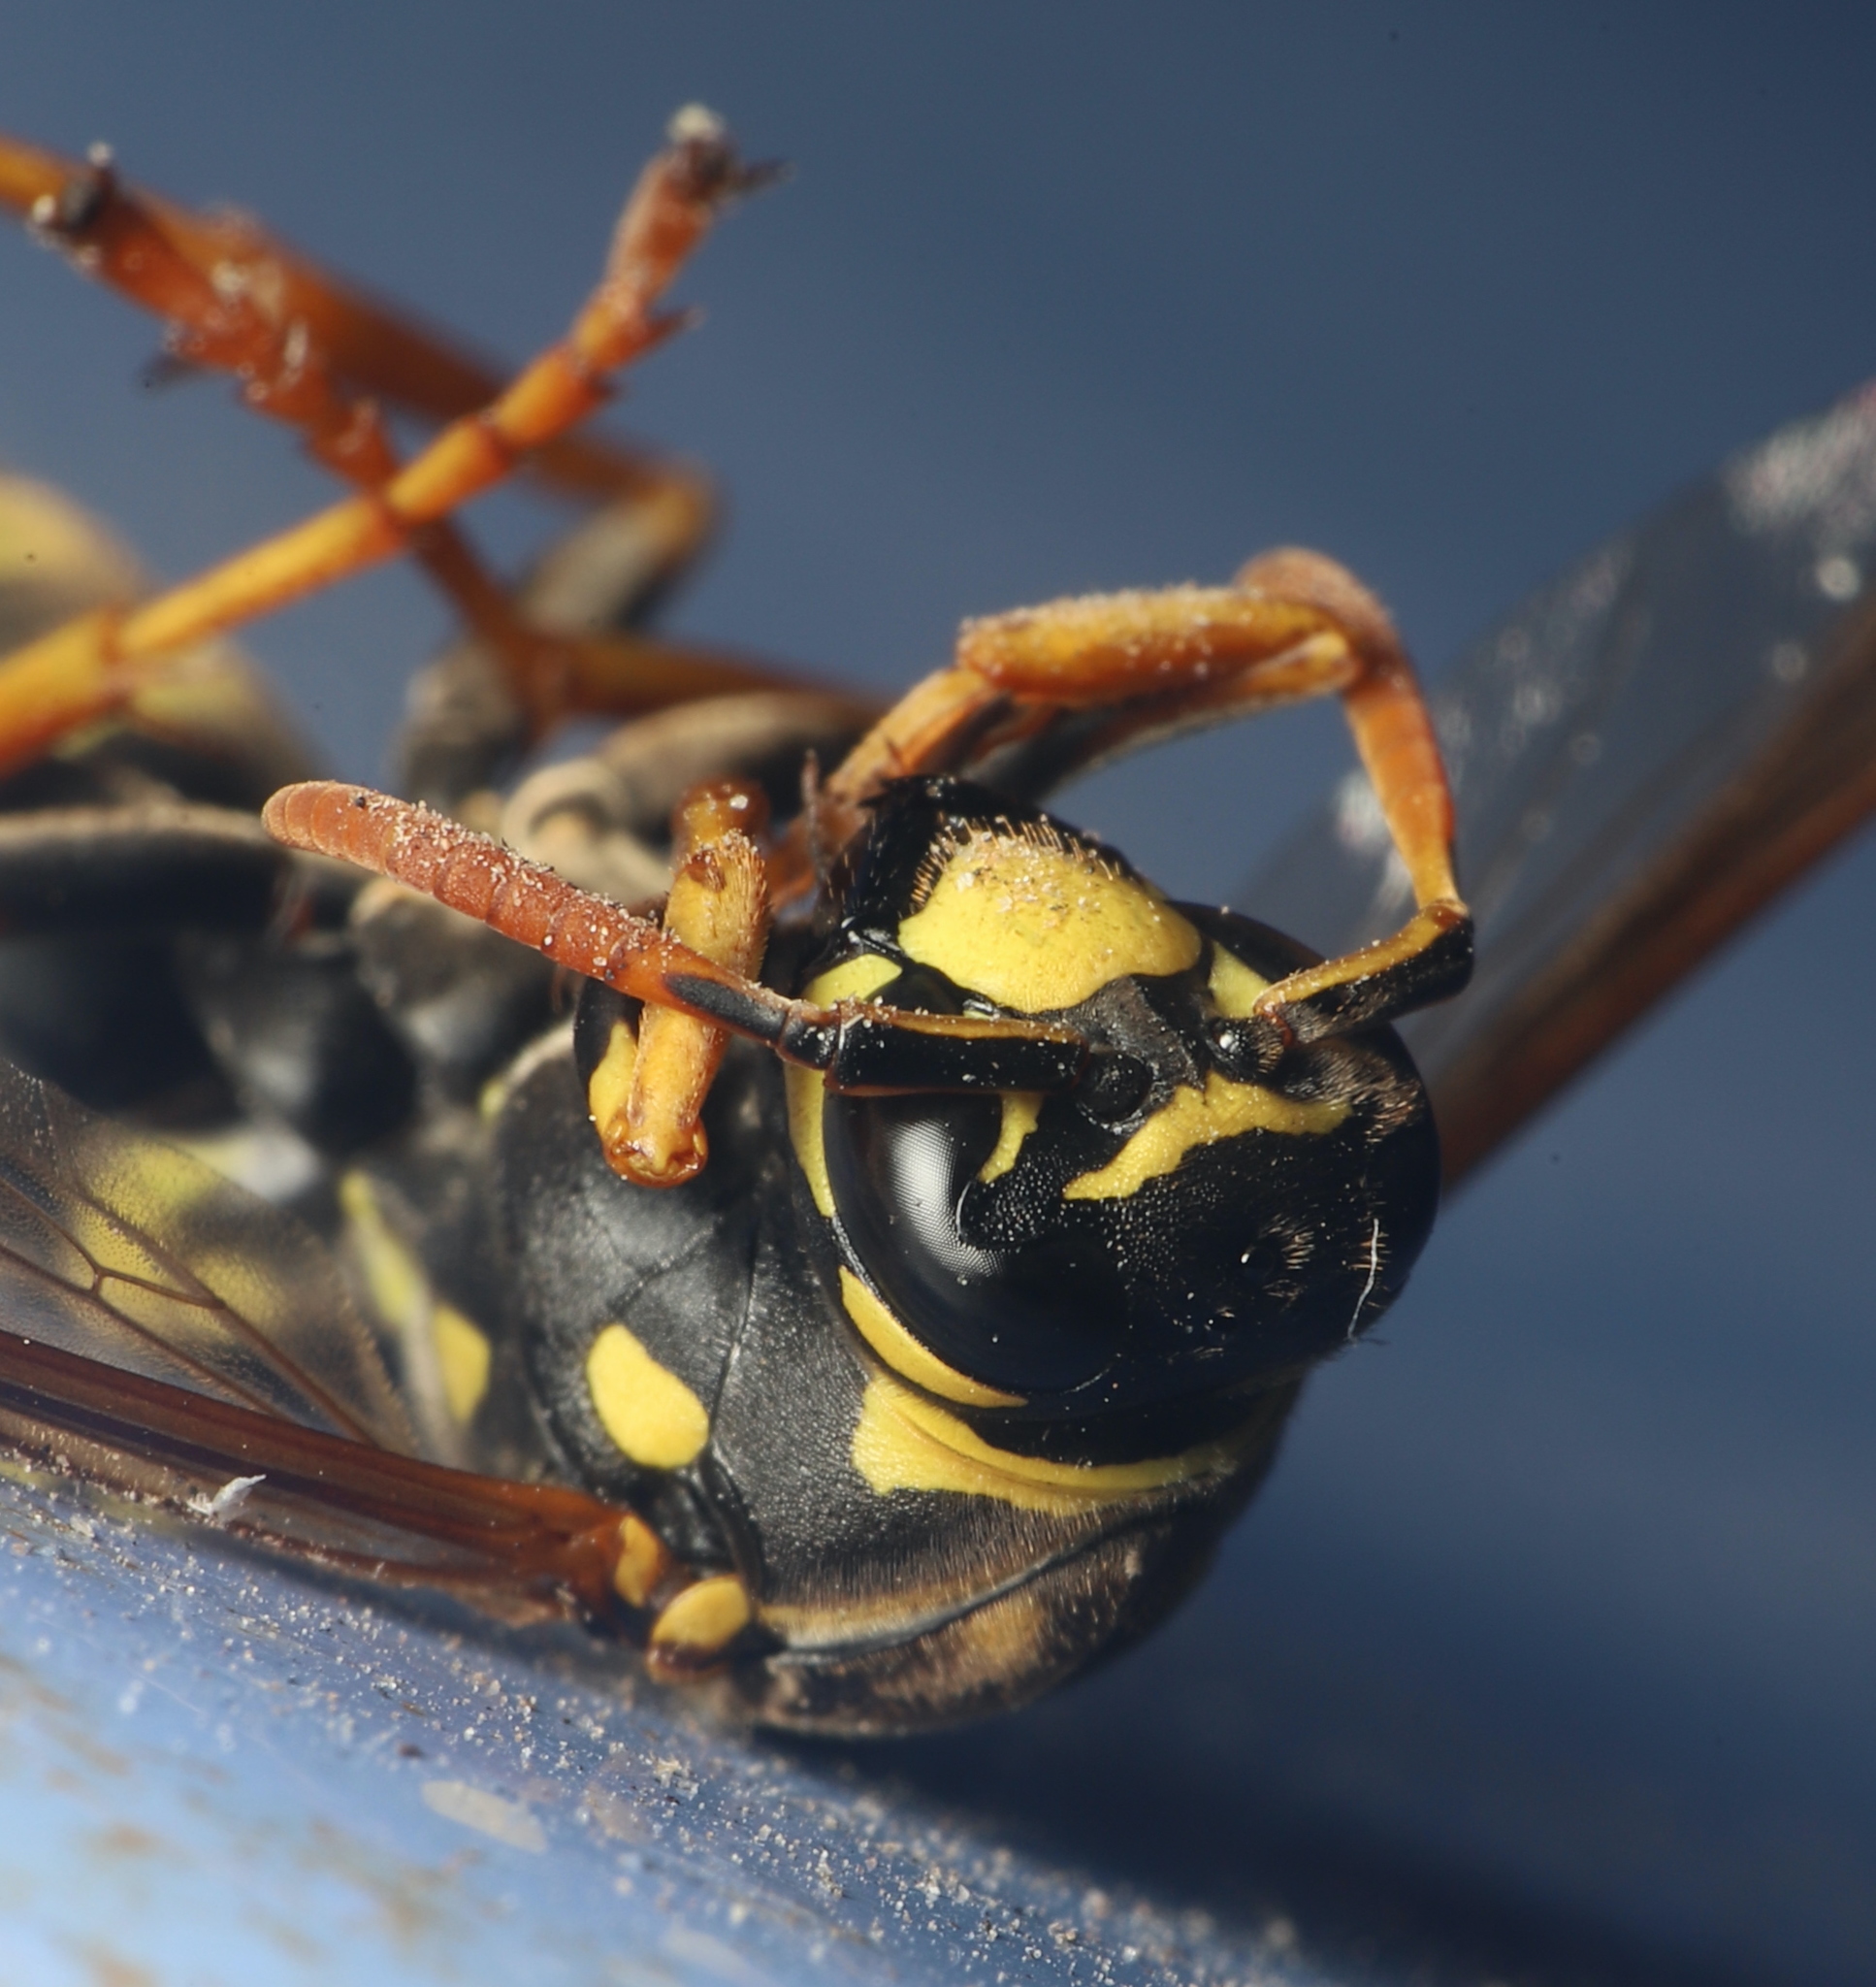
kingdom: Animalia
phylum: Arthropoda
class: Insecta
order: Hymenoptera
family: Eumenidae
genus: Polistes
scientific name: Polistes dominula
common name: Paper wasp
